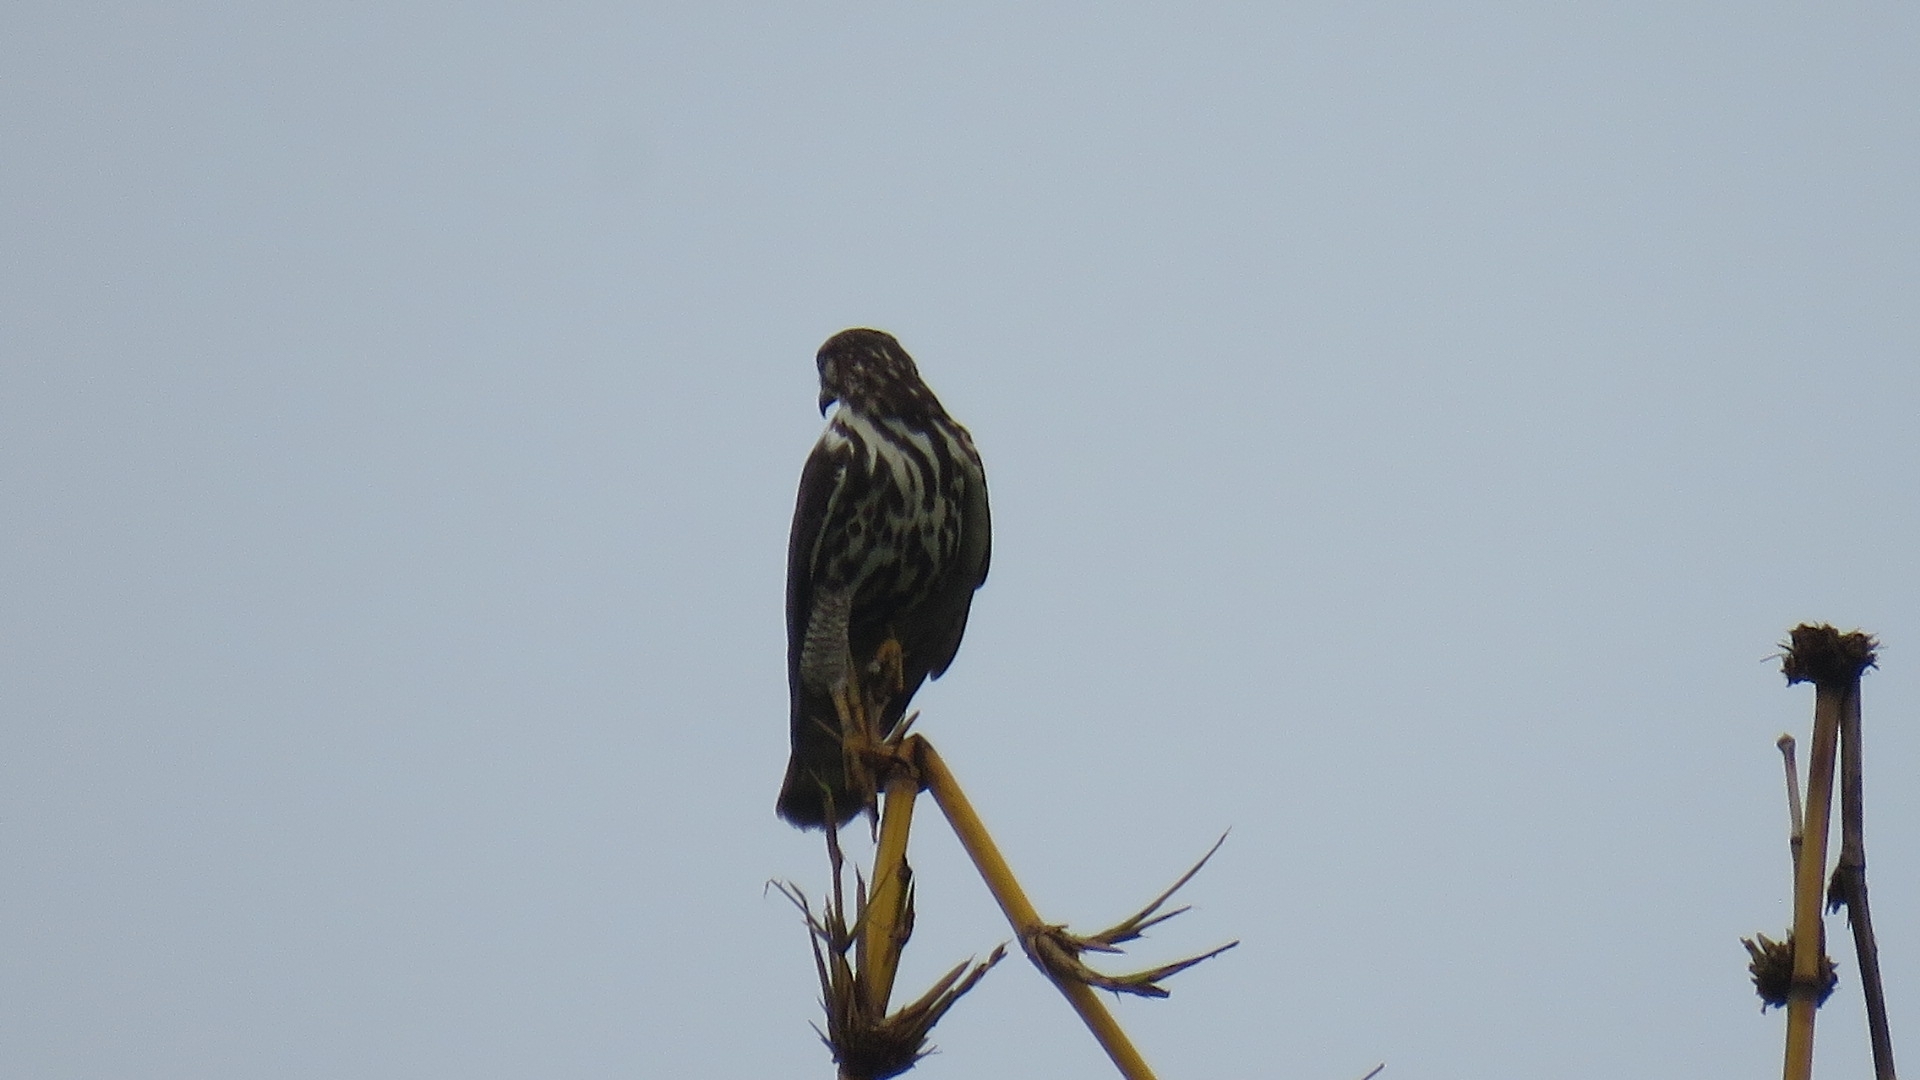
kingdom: Animalia
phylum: Chordata
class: Aves
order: Accipitriformes
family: Accipitridae
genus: Buteo
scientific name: Buteo nitidus
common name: Grey-lined hawk
